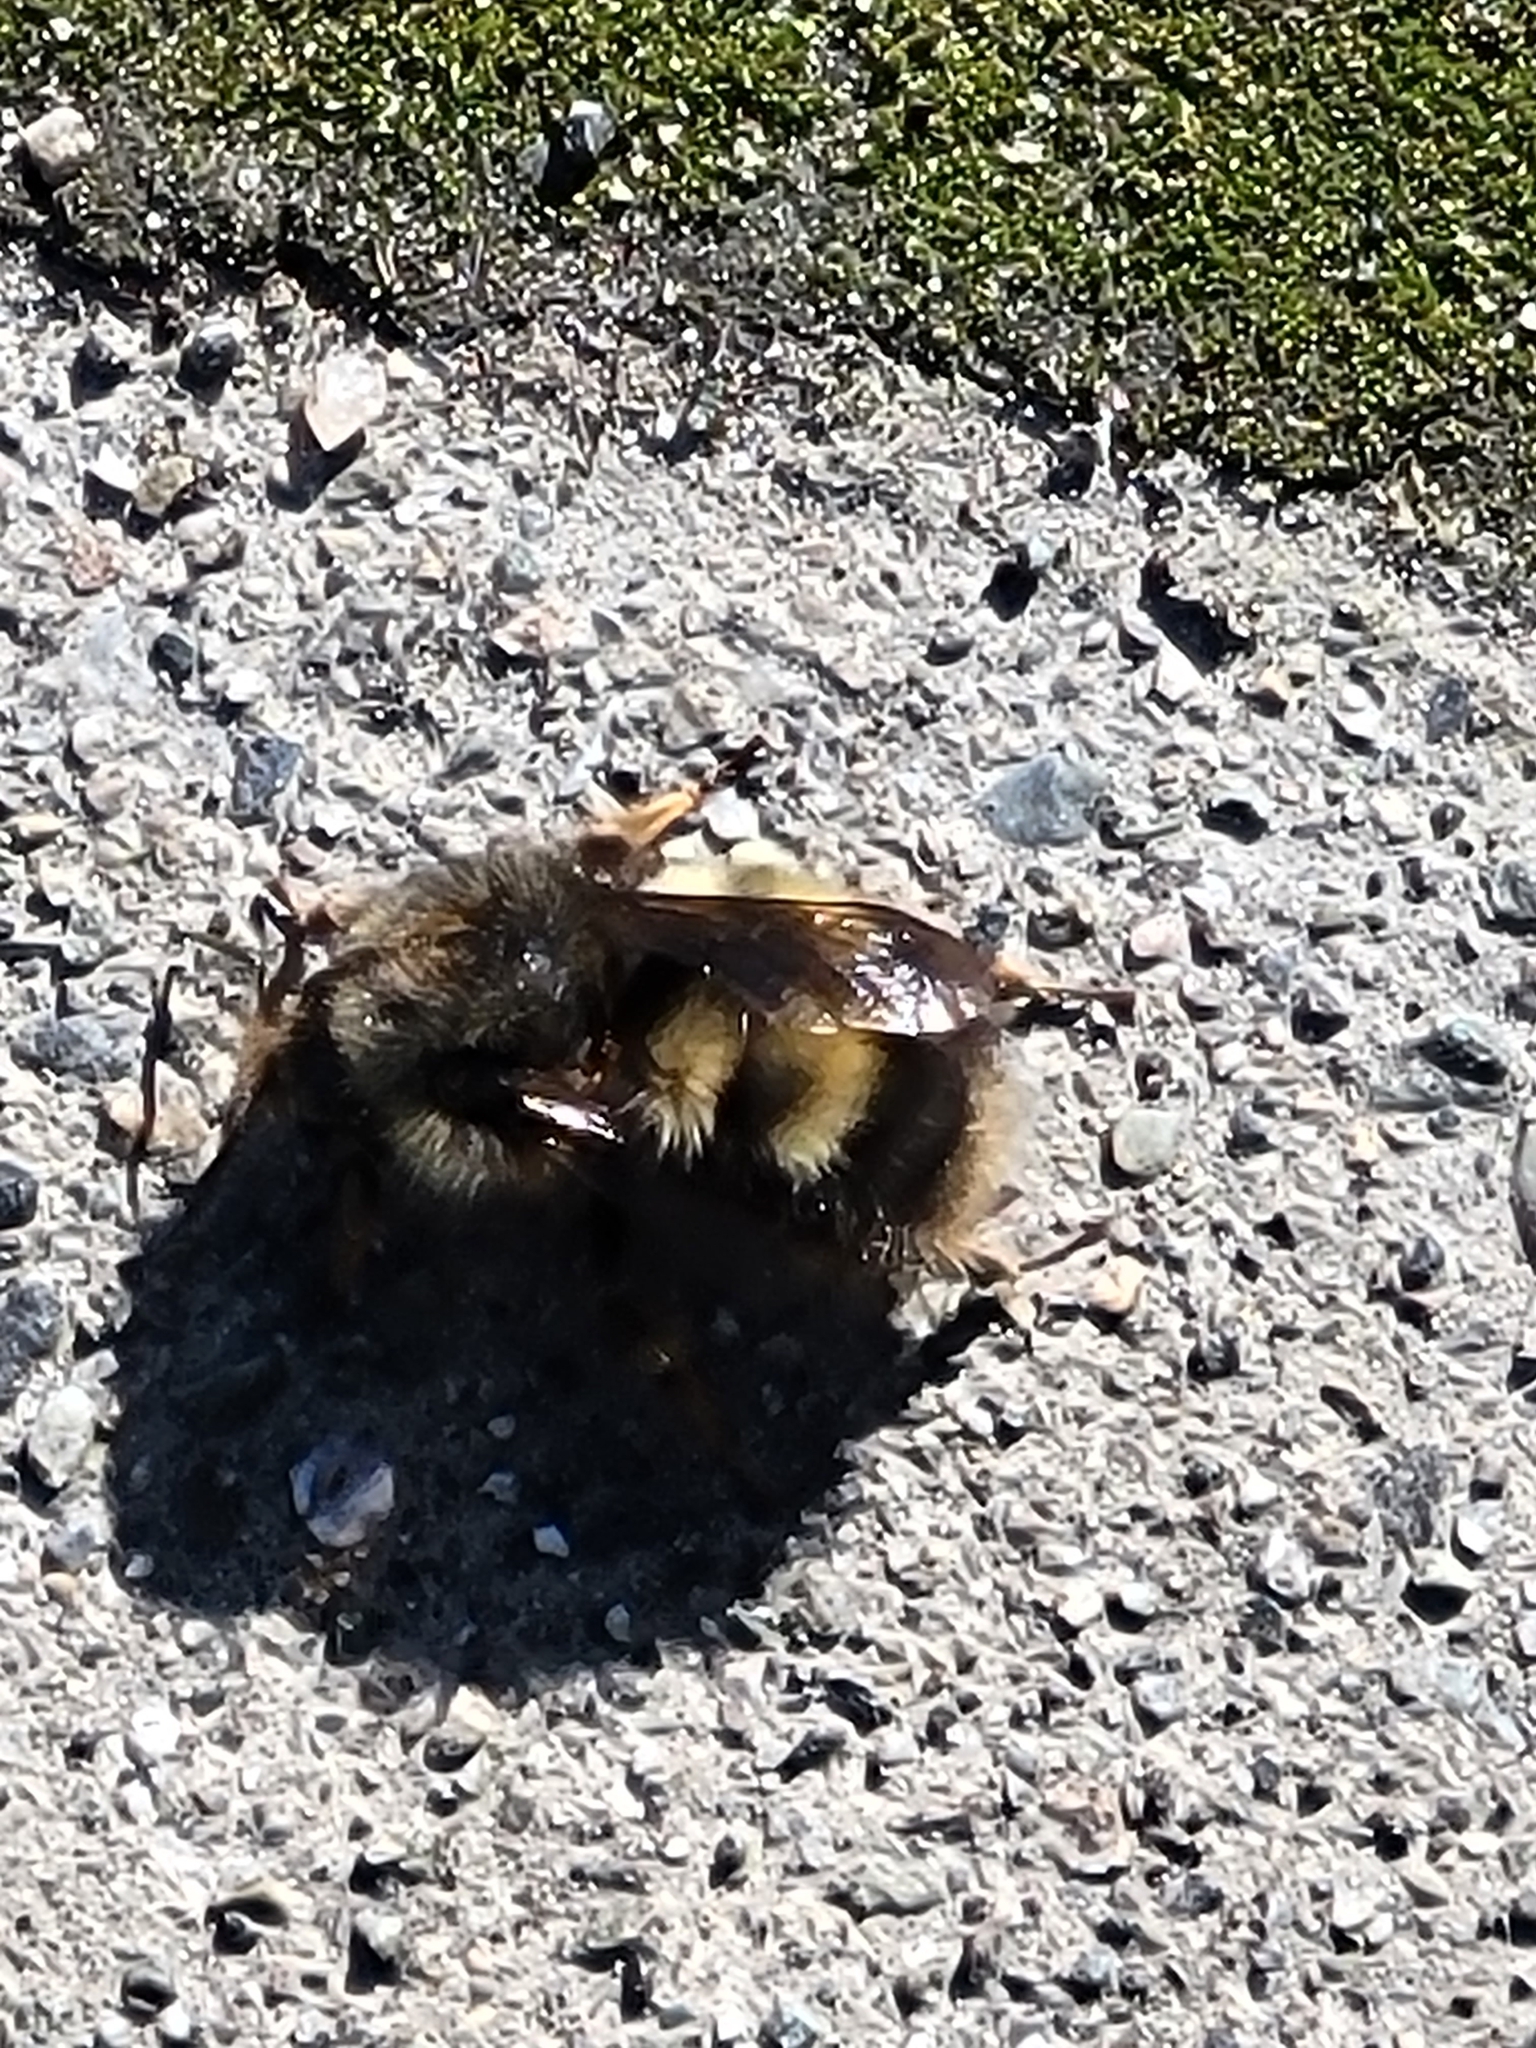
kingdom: Animalia
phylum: Arthropoda
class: Insecta
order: Hymenoptera
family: Apidae
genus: Bombus
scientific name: Bombus sitkensis
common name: Sitka bumble bee
